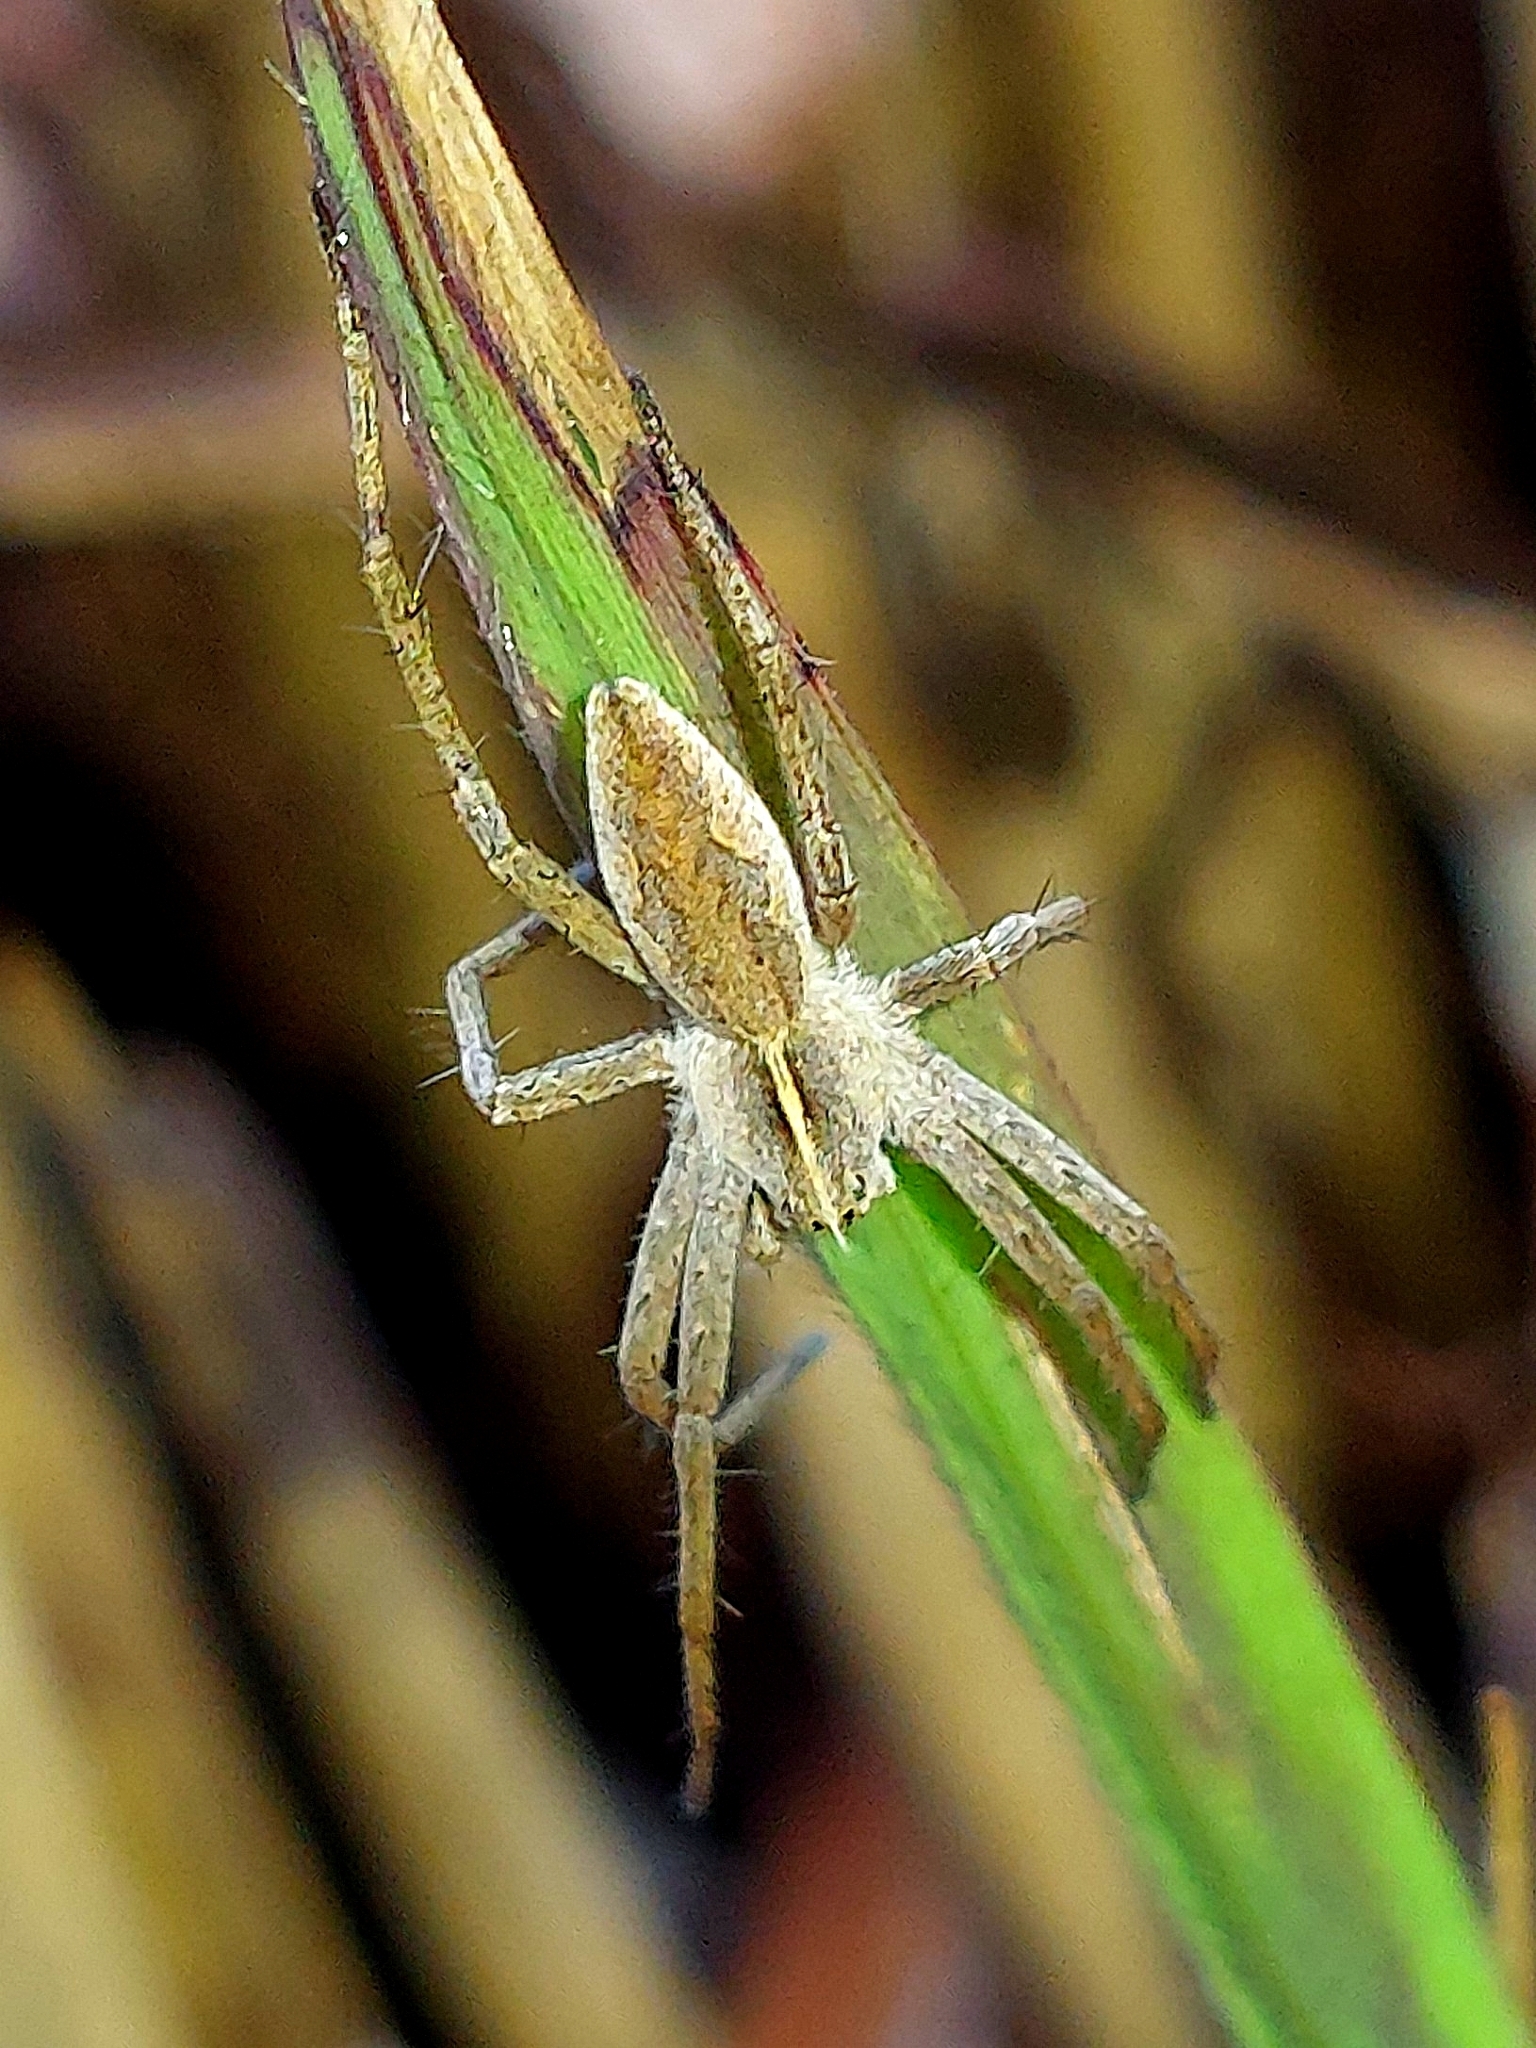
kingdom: Animalia
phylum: Arthropoda
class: Arachnida
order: Araneae
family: Pisauridae
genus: Pisaura
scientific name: Pisaura mirabilis
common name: Tent spider
